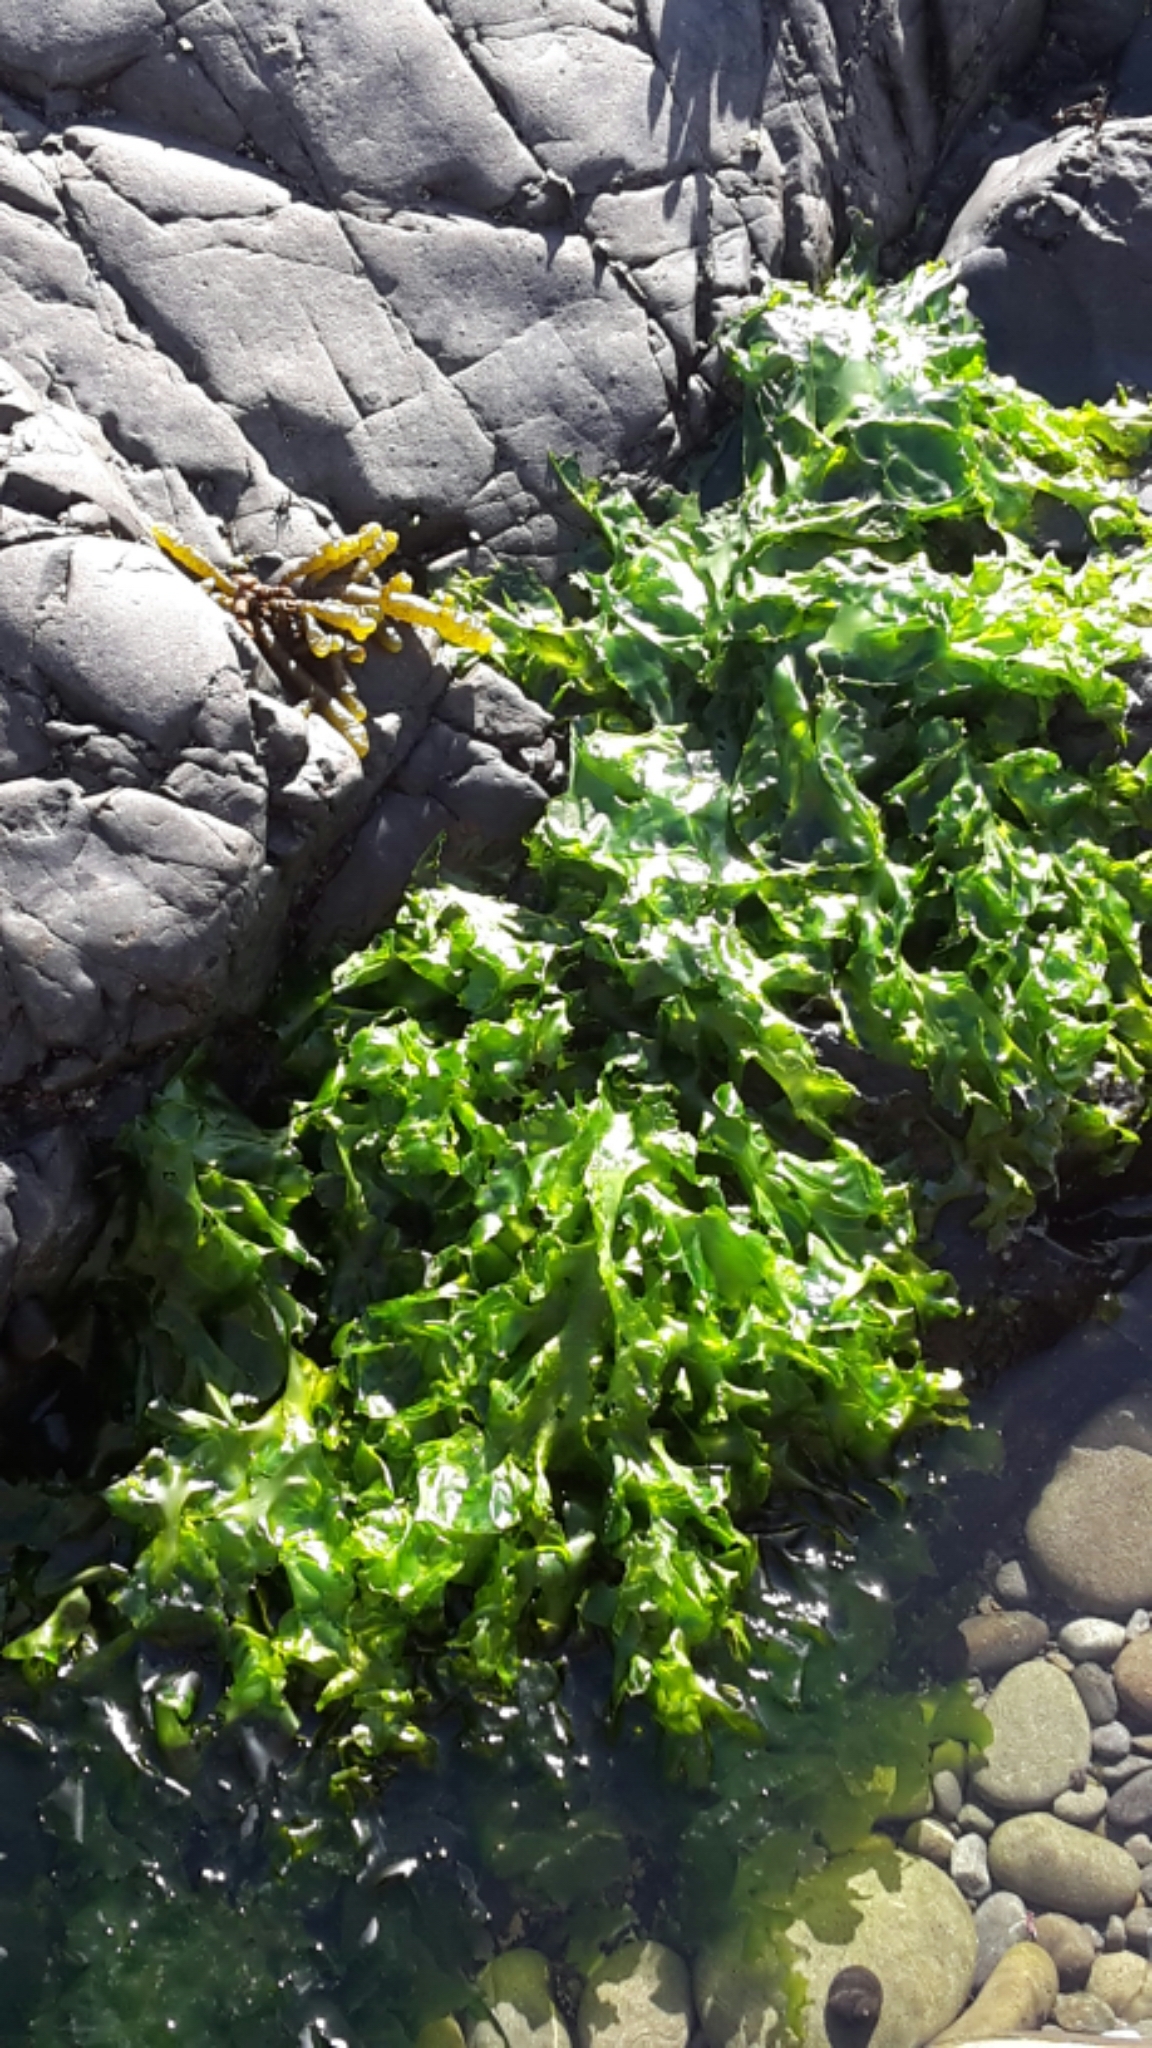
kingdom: Plantae
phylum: Chlorophyta
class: Ulvophyceae
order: Ulvales
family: Ulvaceae
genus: Ulva
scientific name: Ulva
